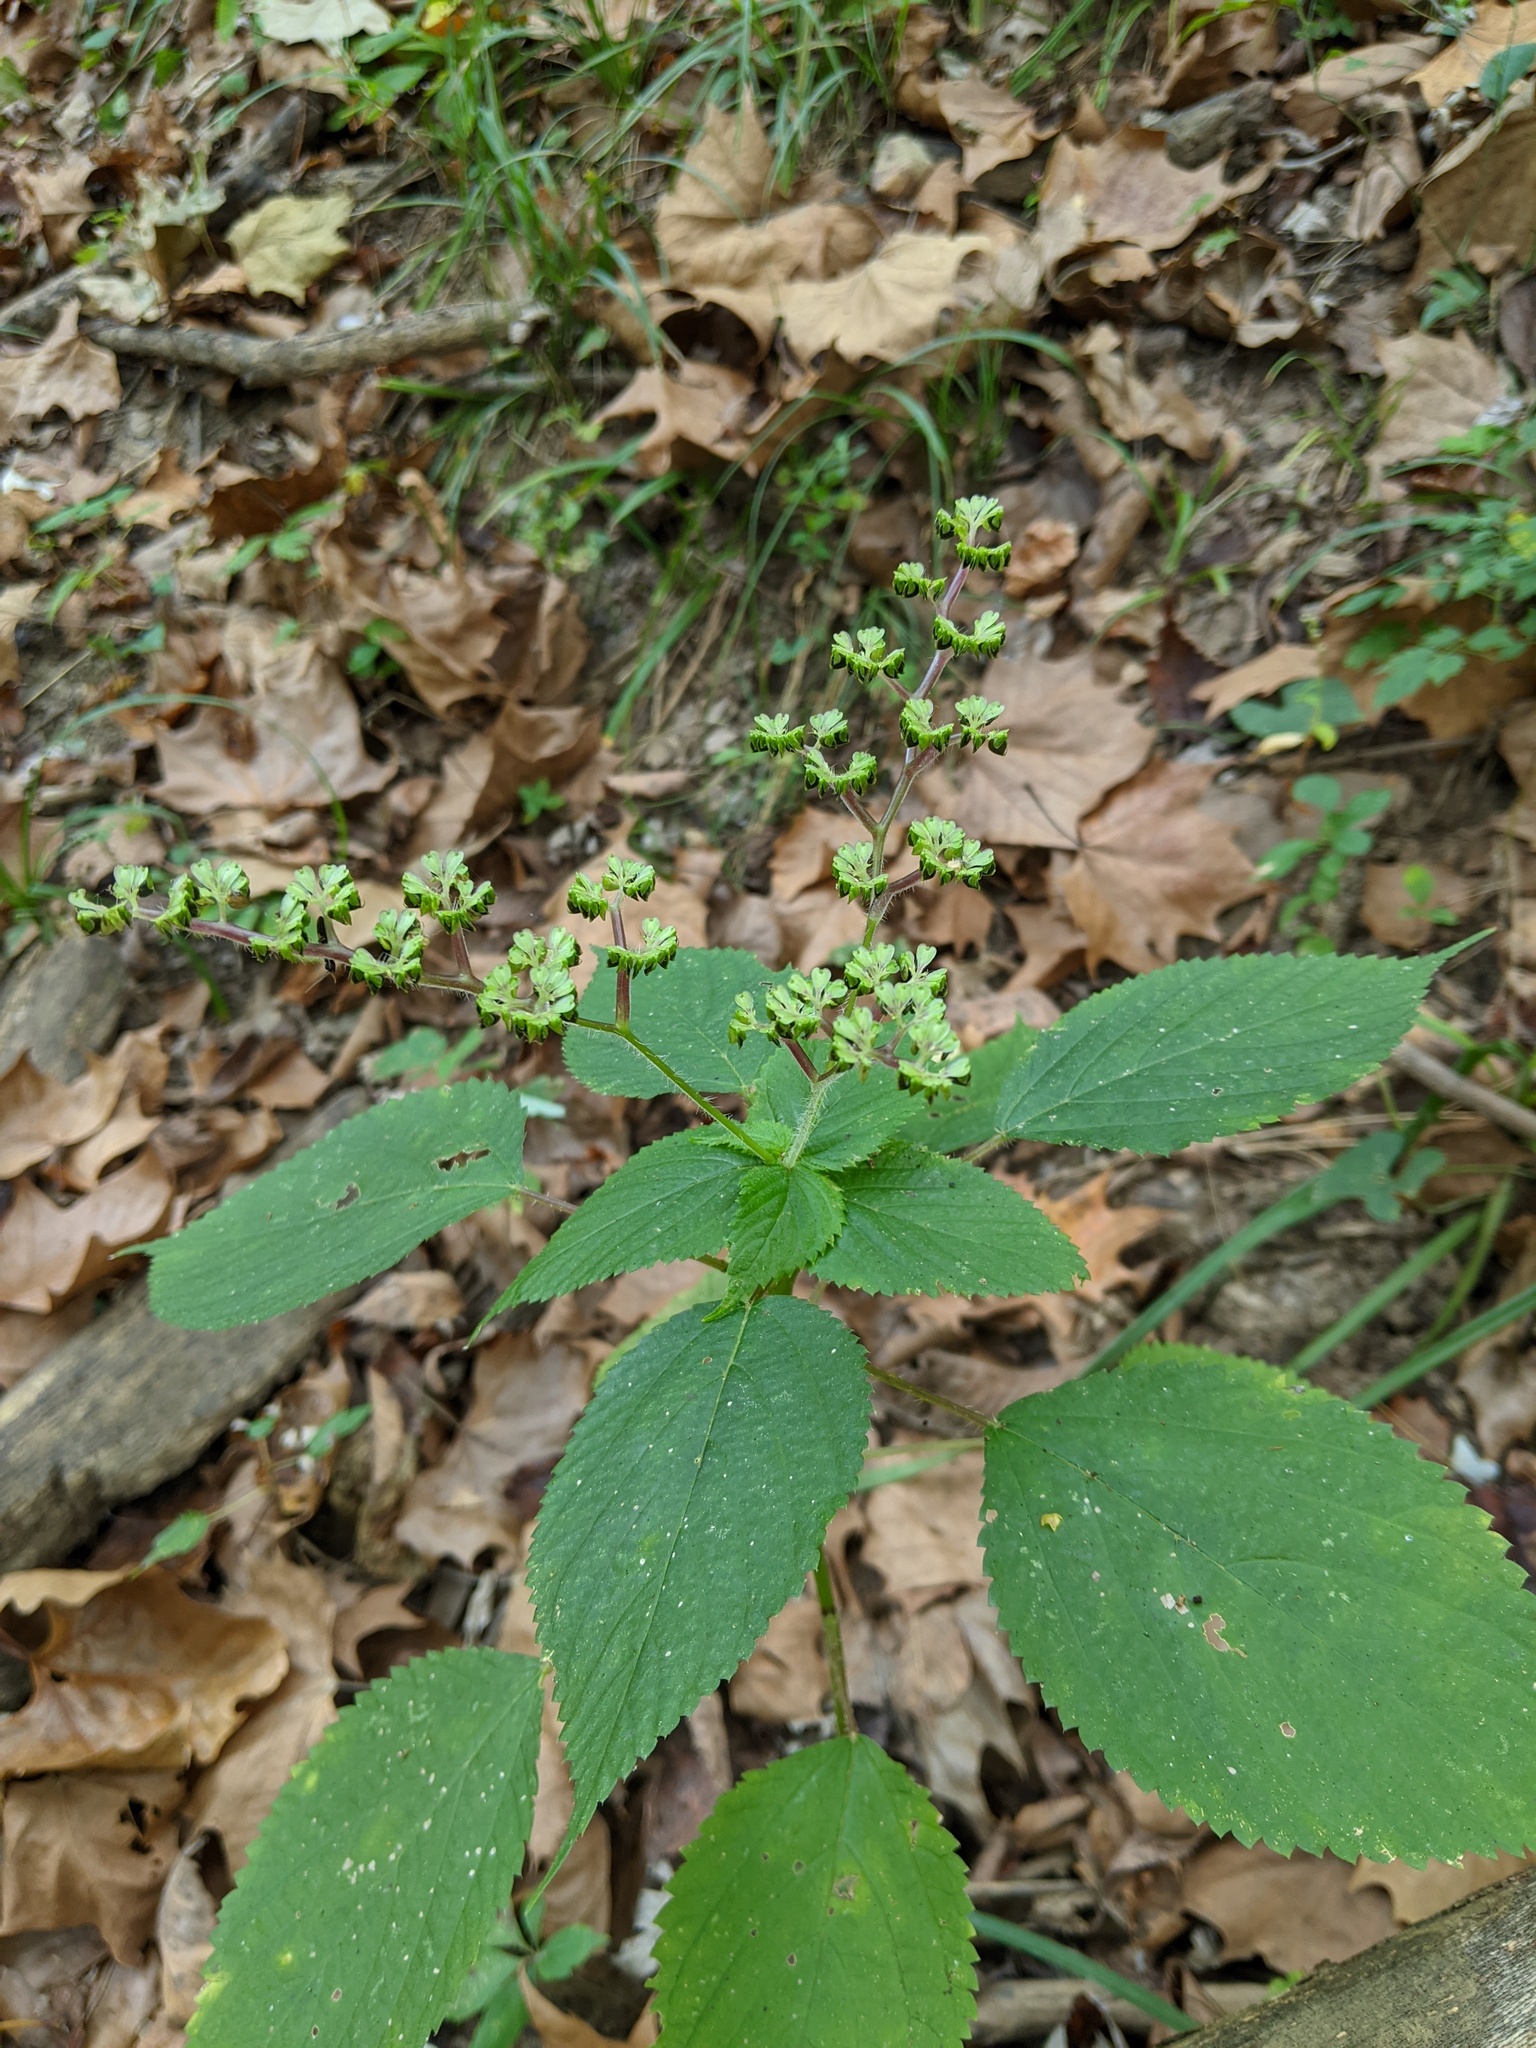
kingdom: Plantae
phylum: Tracheophyta
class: Magnoliopsida
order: Rosales
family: Urticaceae
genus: Laportea
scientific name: Laportea canadensis
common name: Canada nettle
